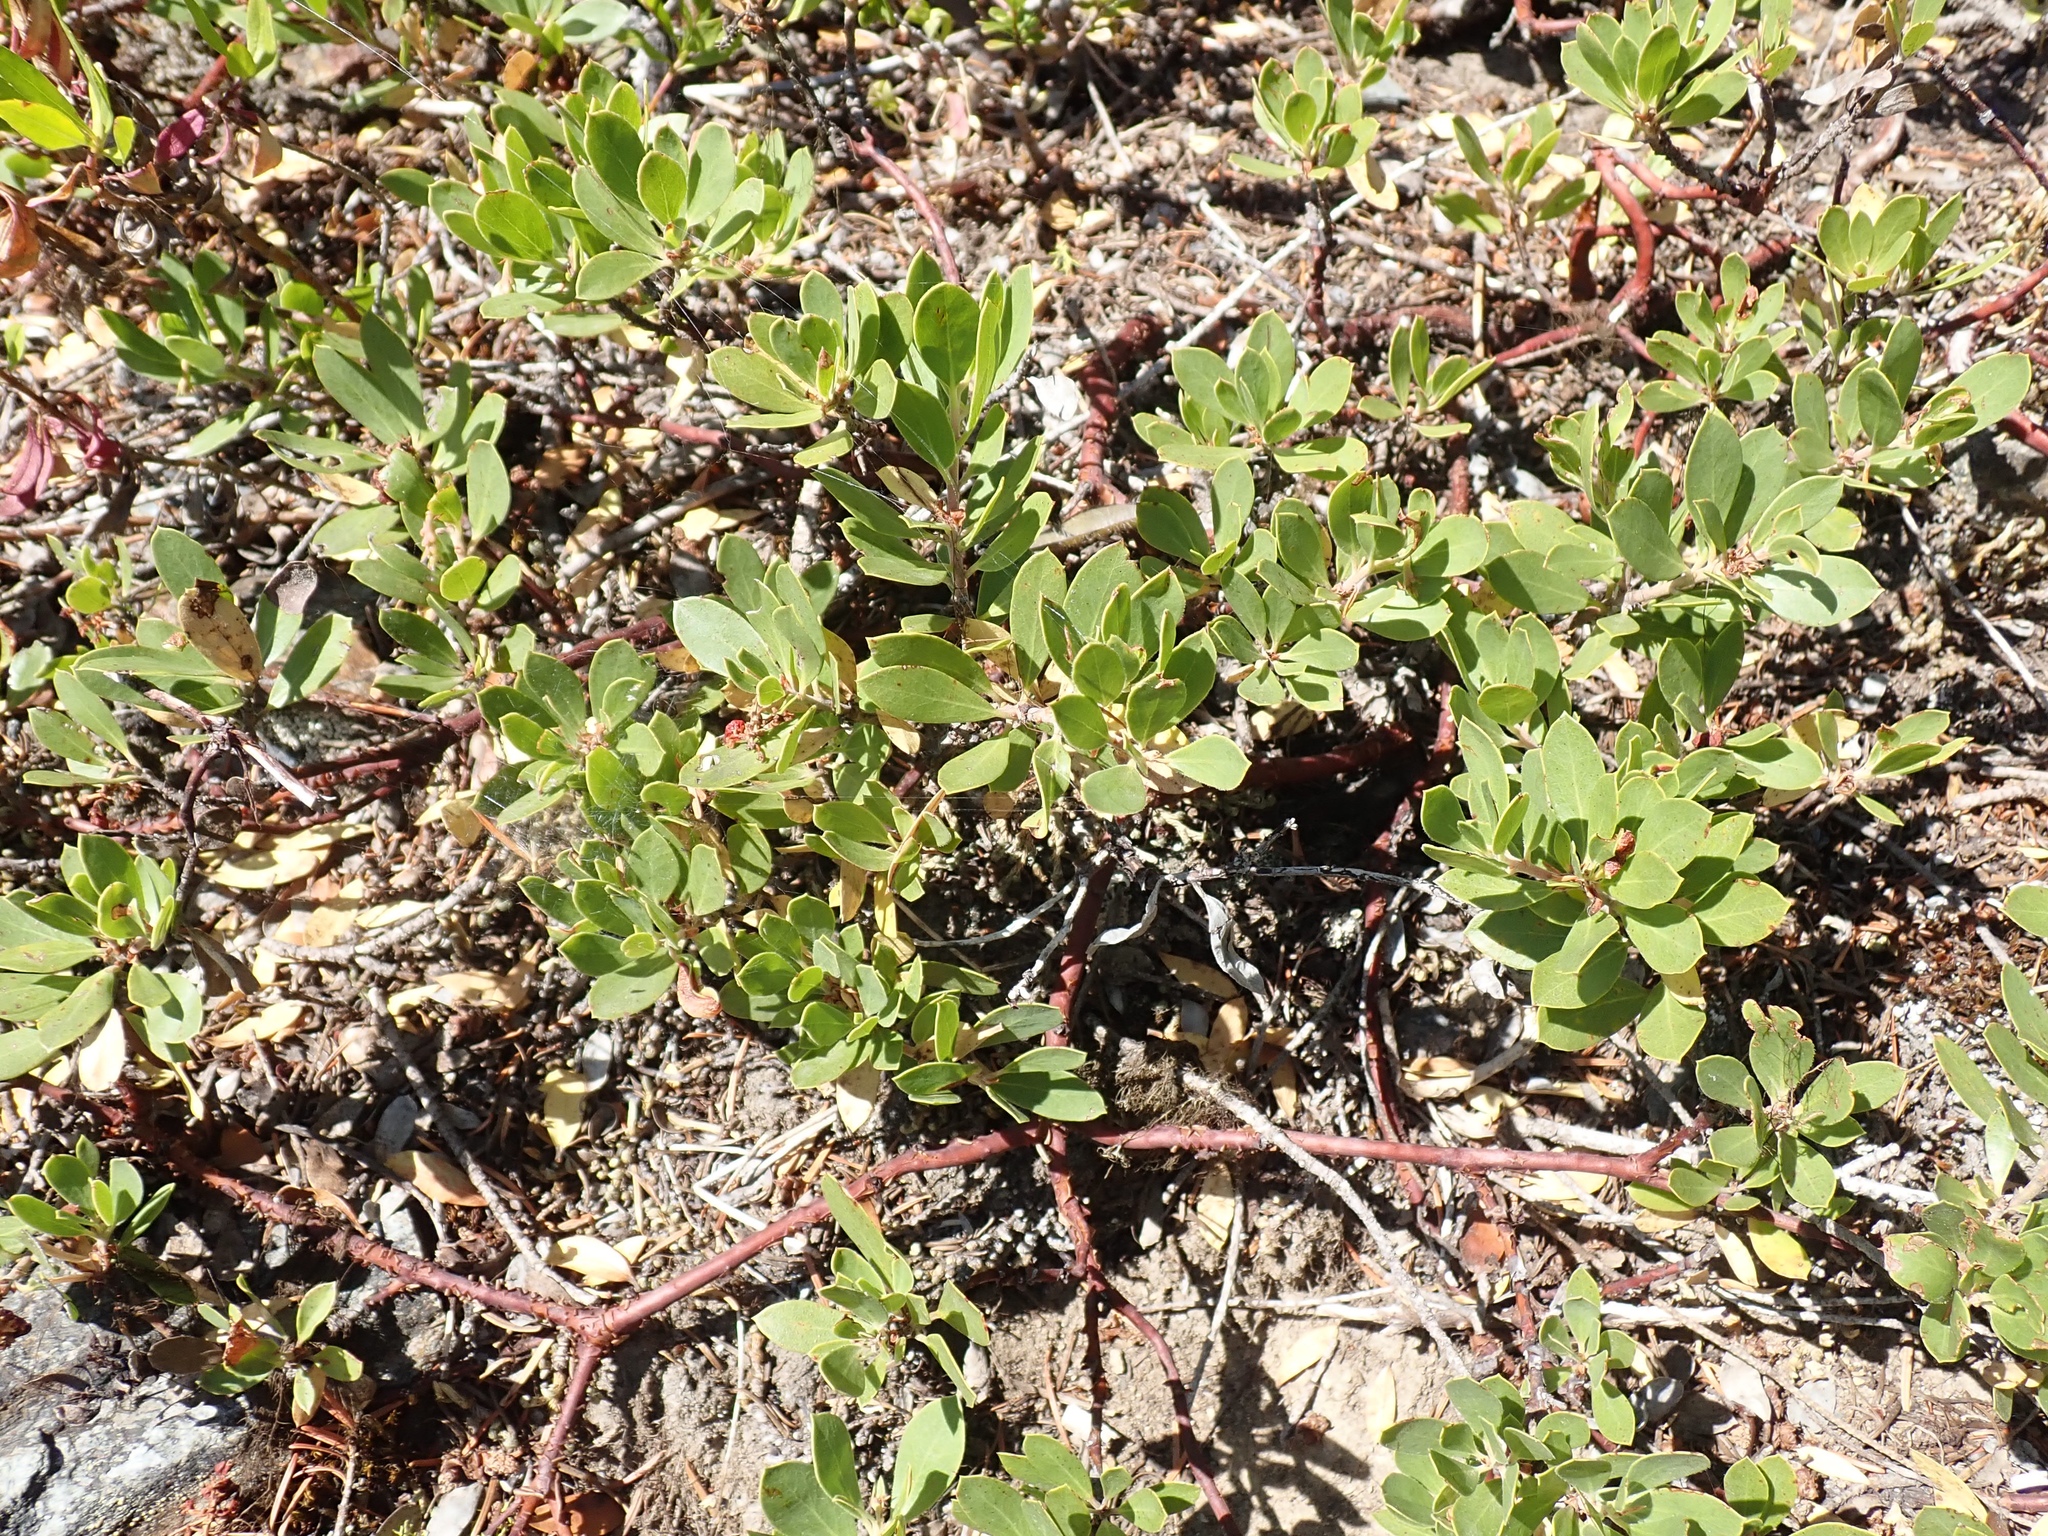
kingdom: Plantae
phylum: Tracheophyta
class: Magnoliopsida
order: Ericales
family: Ericaceae
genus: Arctostaphylos
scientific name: Arctostaphylos nevadensis
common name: Pinemat manzanita
